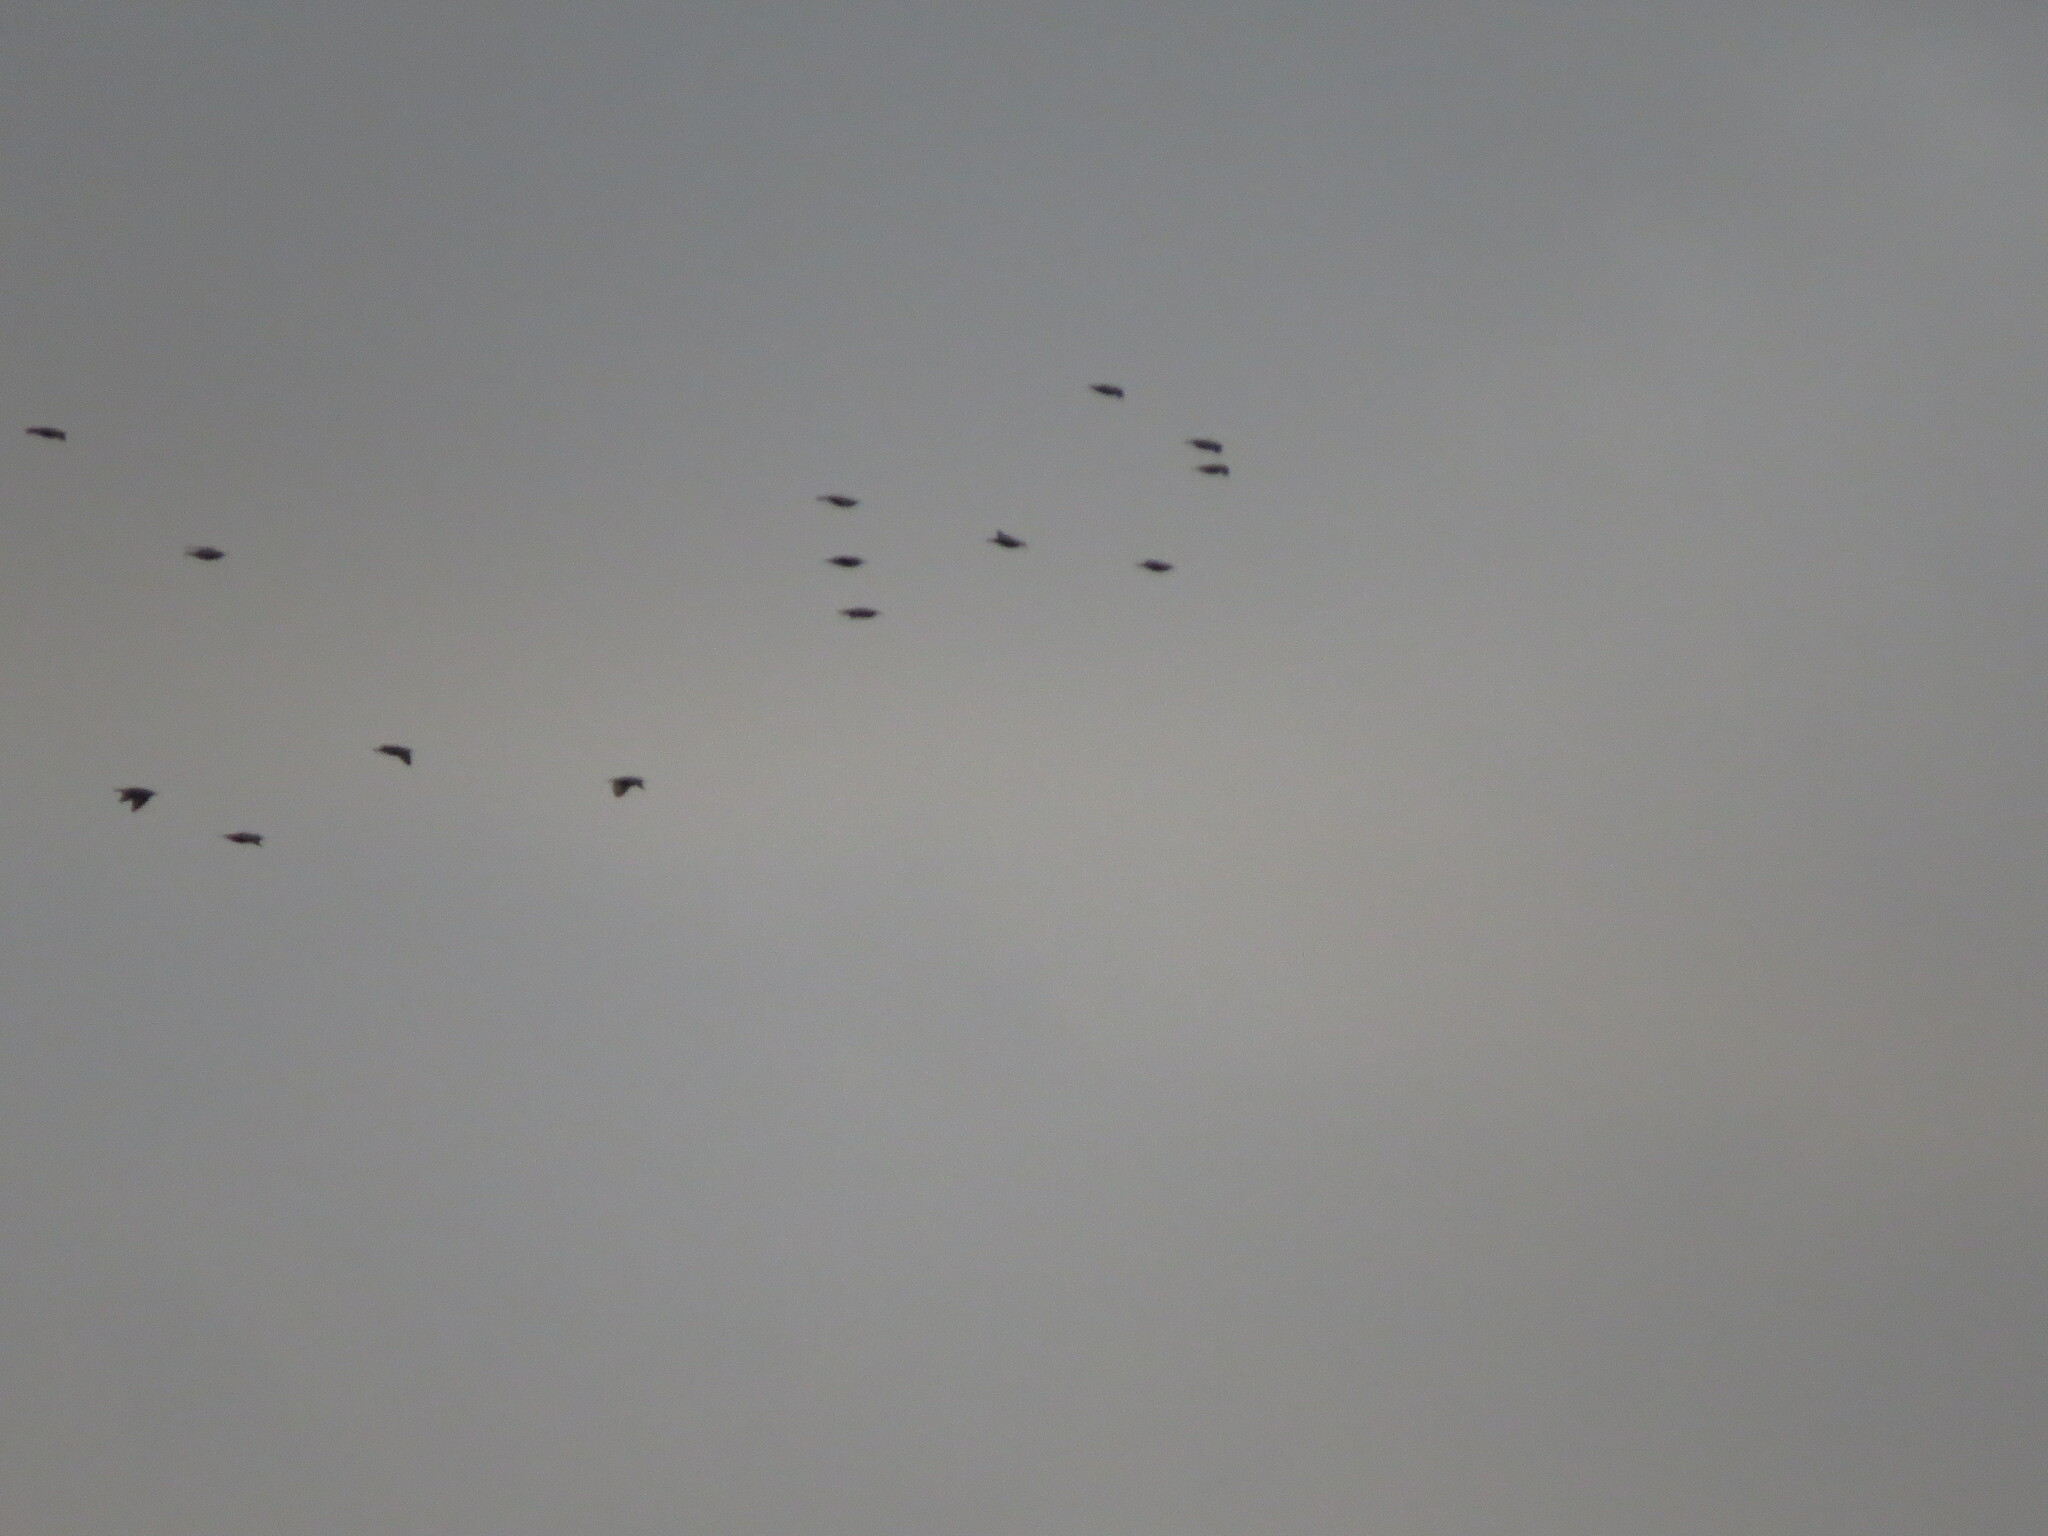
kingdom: Animalia
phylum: Chordata
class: Aves
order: Passeriformes
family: Sturnidae
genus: Sturnus
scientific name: Sturnus vulgaris
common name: Common starling
